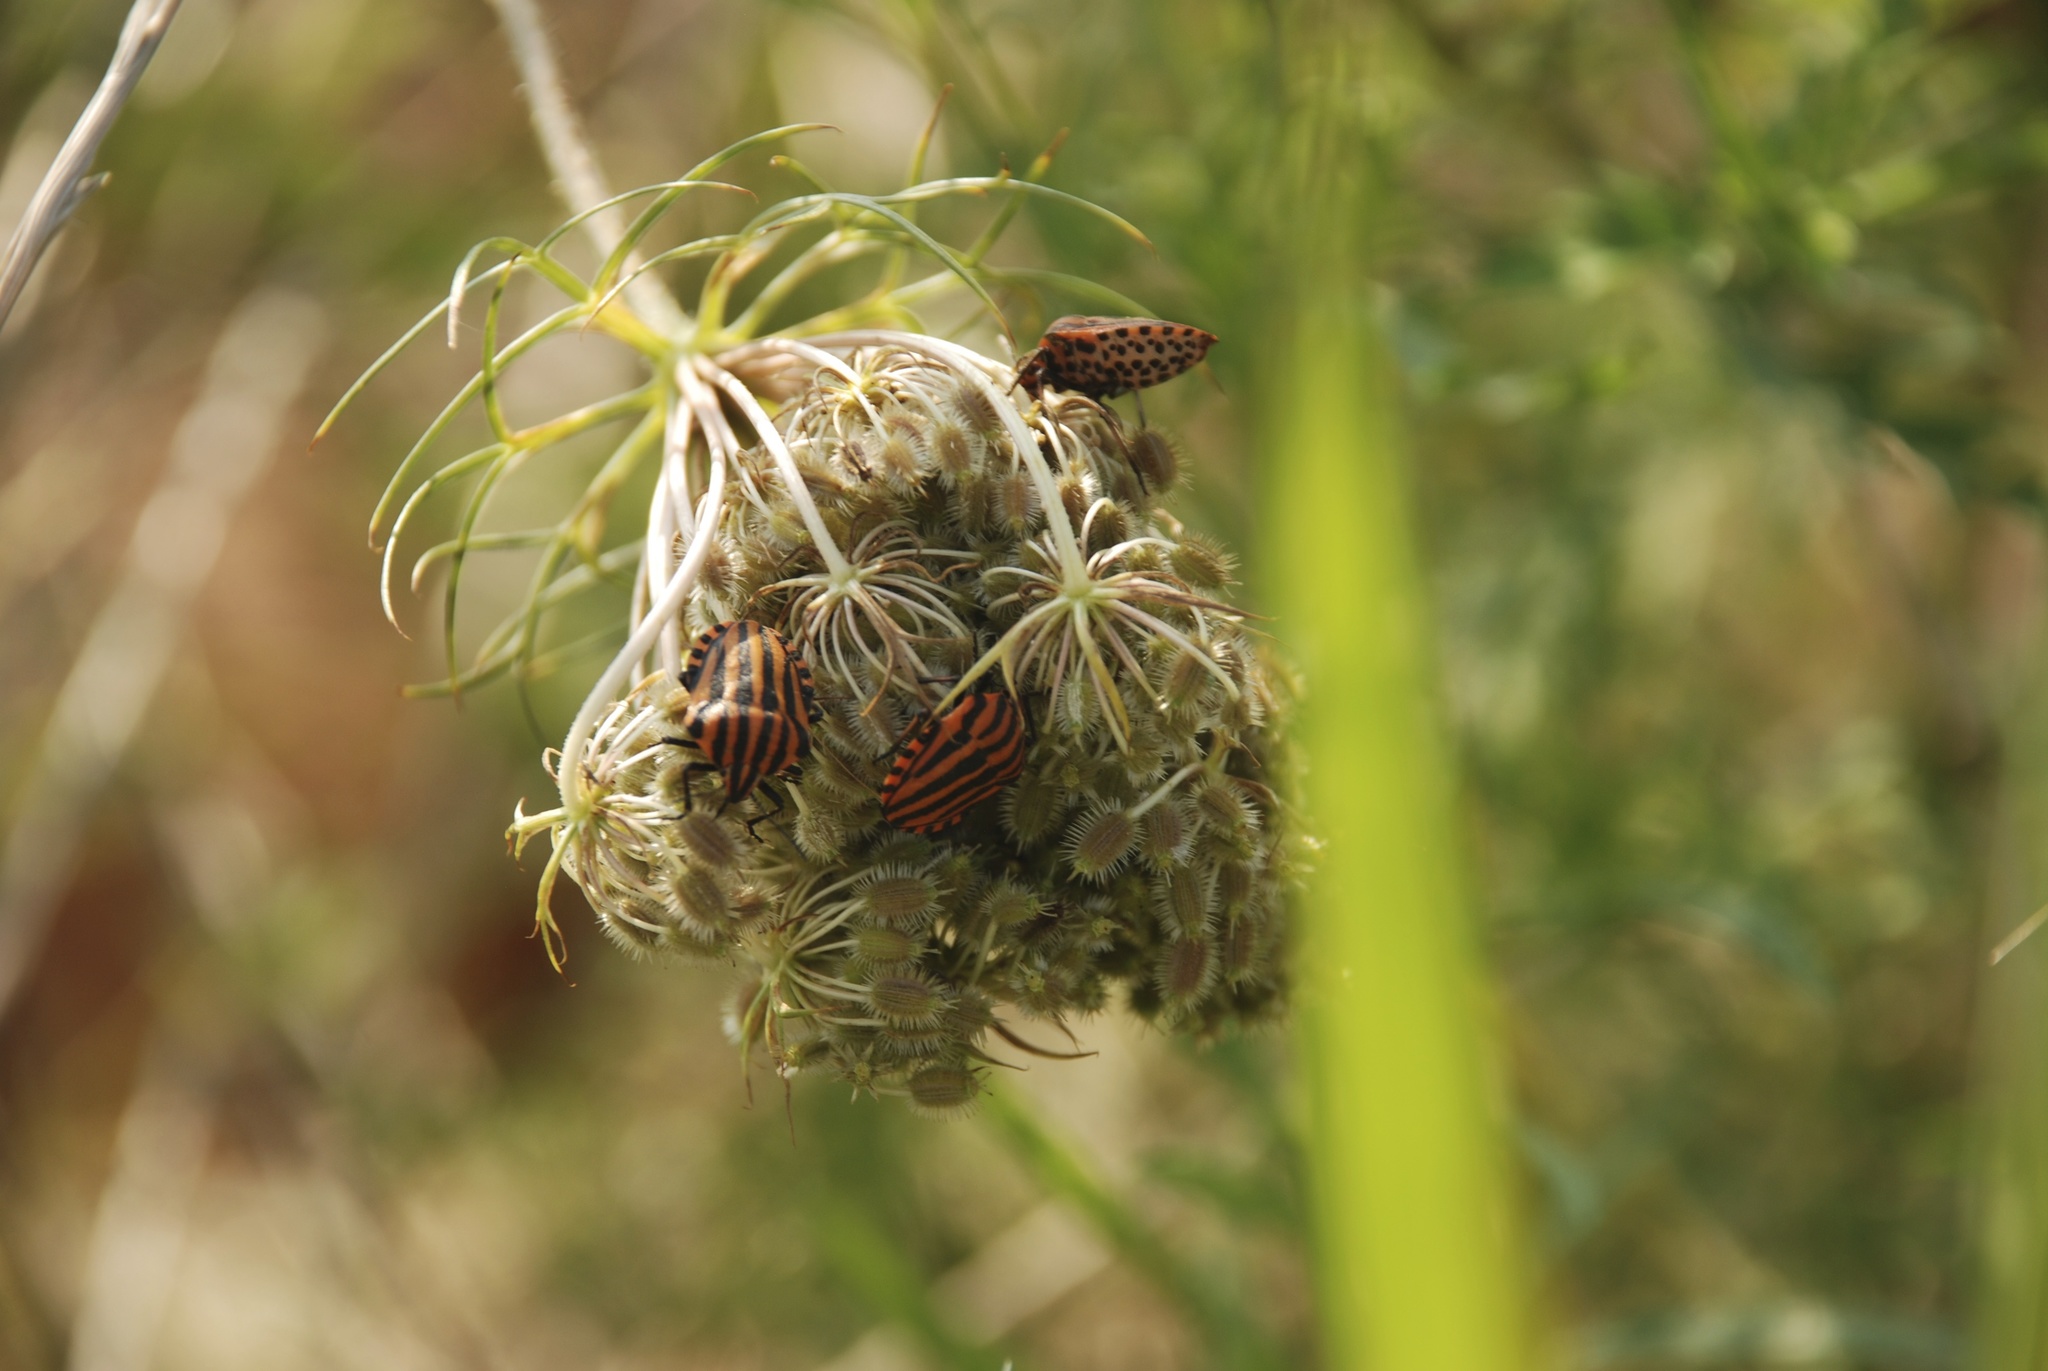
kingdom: Animalia
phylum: Arthropoda
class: Insecta
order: Hemiptera
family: Pentatomidae
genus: Graphosoma
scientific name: Graphosoma italicum
